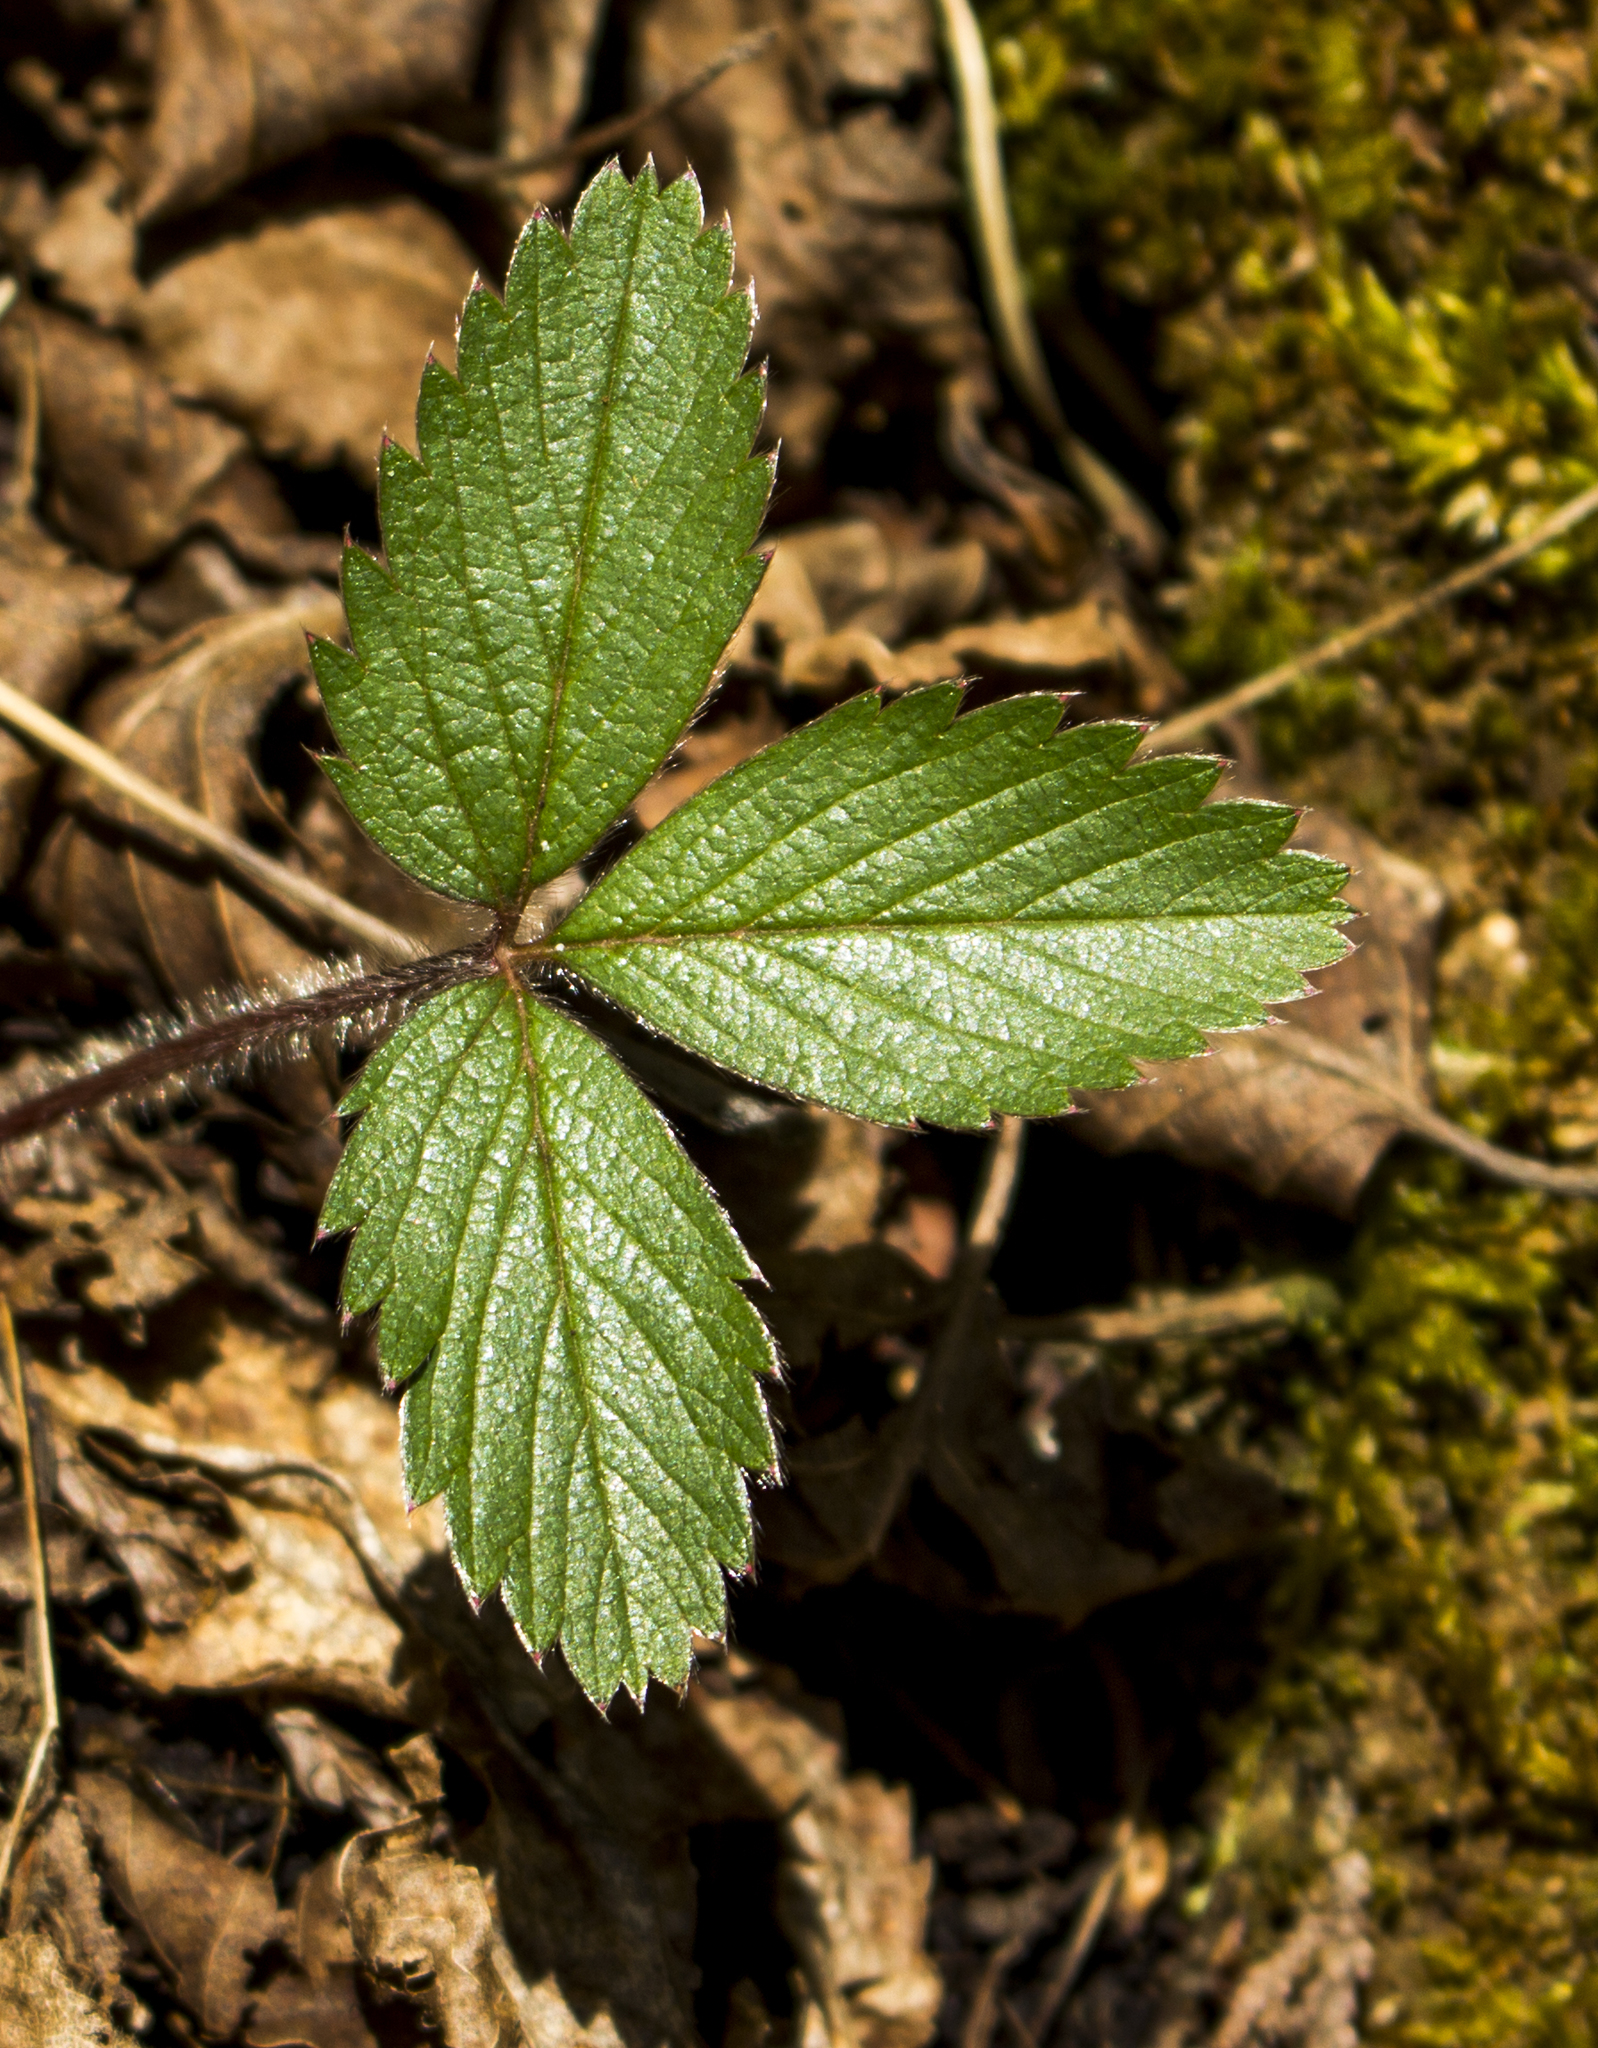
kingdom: Plantae
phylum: Tracheophyta
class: Magnoliopsida
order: Rosales
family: Rosaceae
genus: Fragaria
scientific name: Fragaria vesca
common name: Wild strawberry
